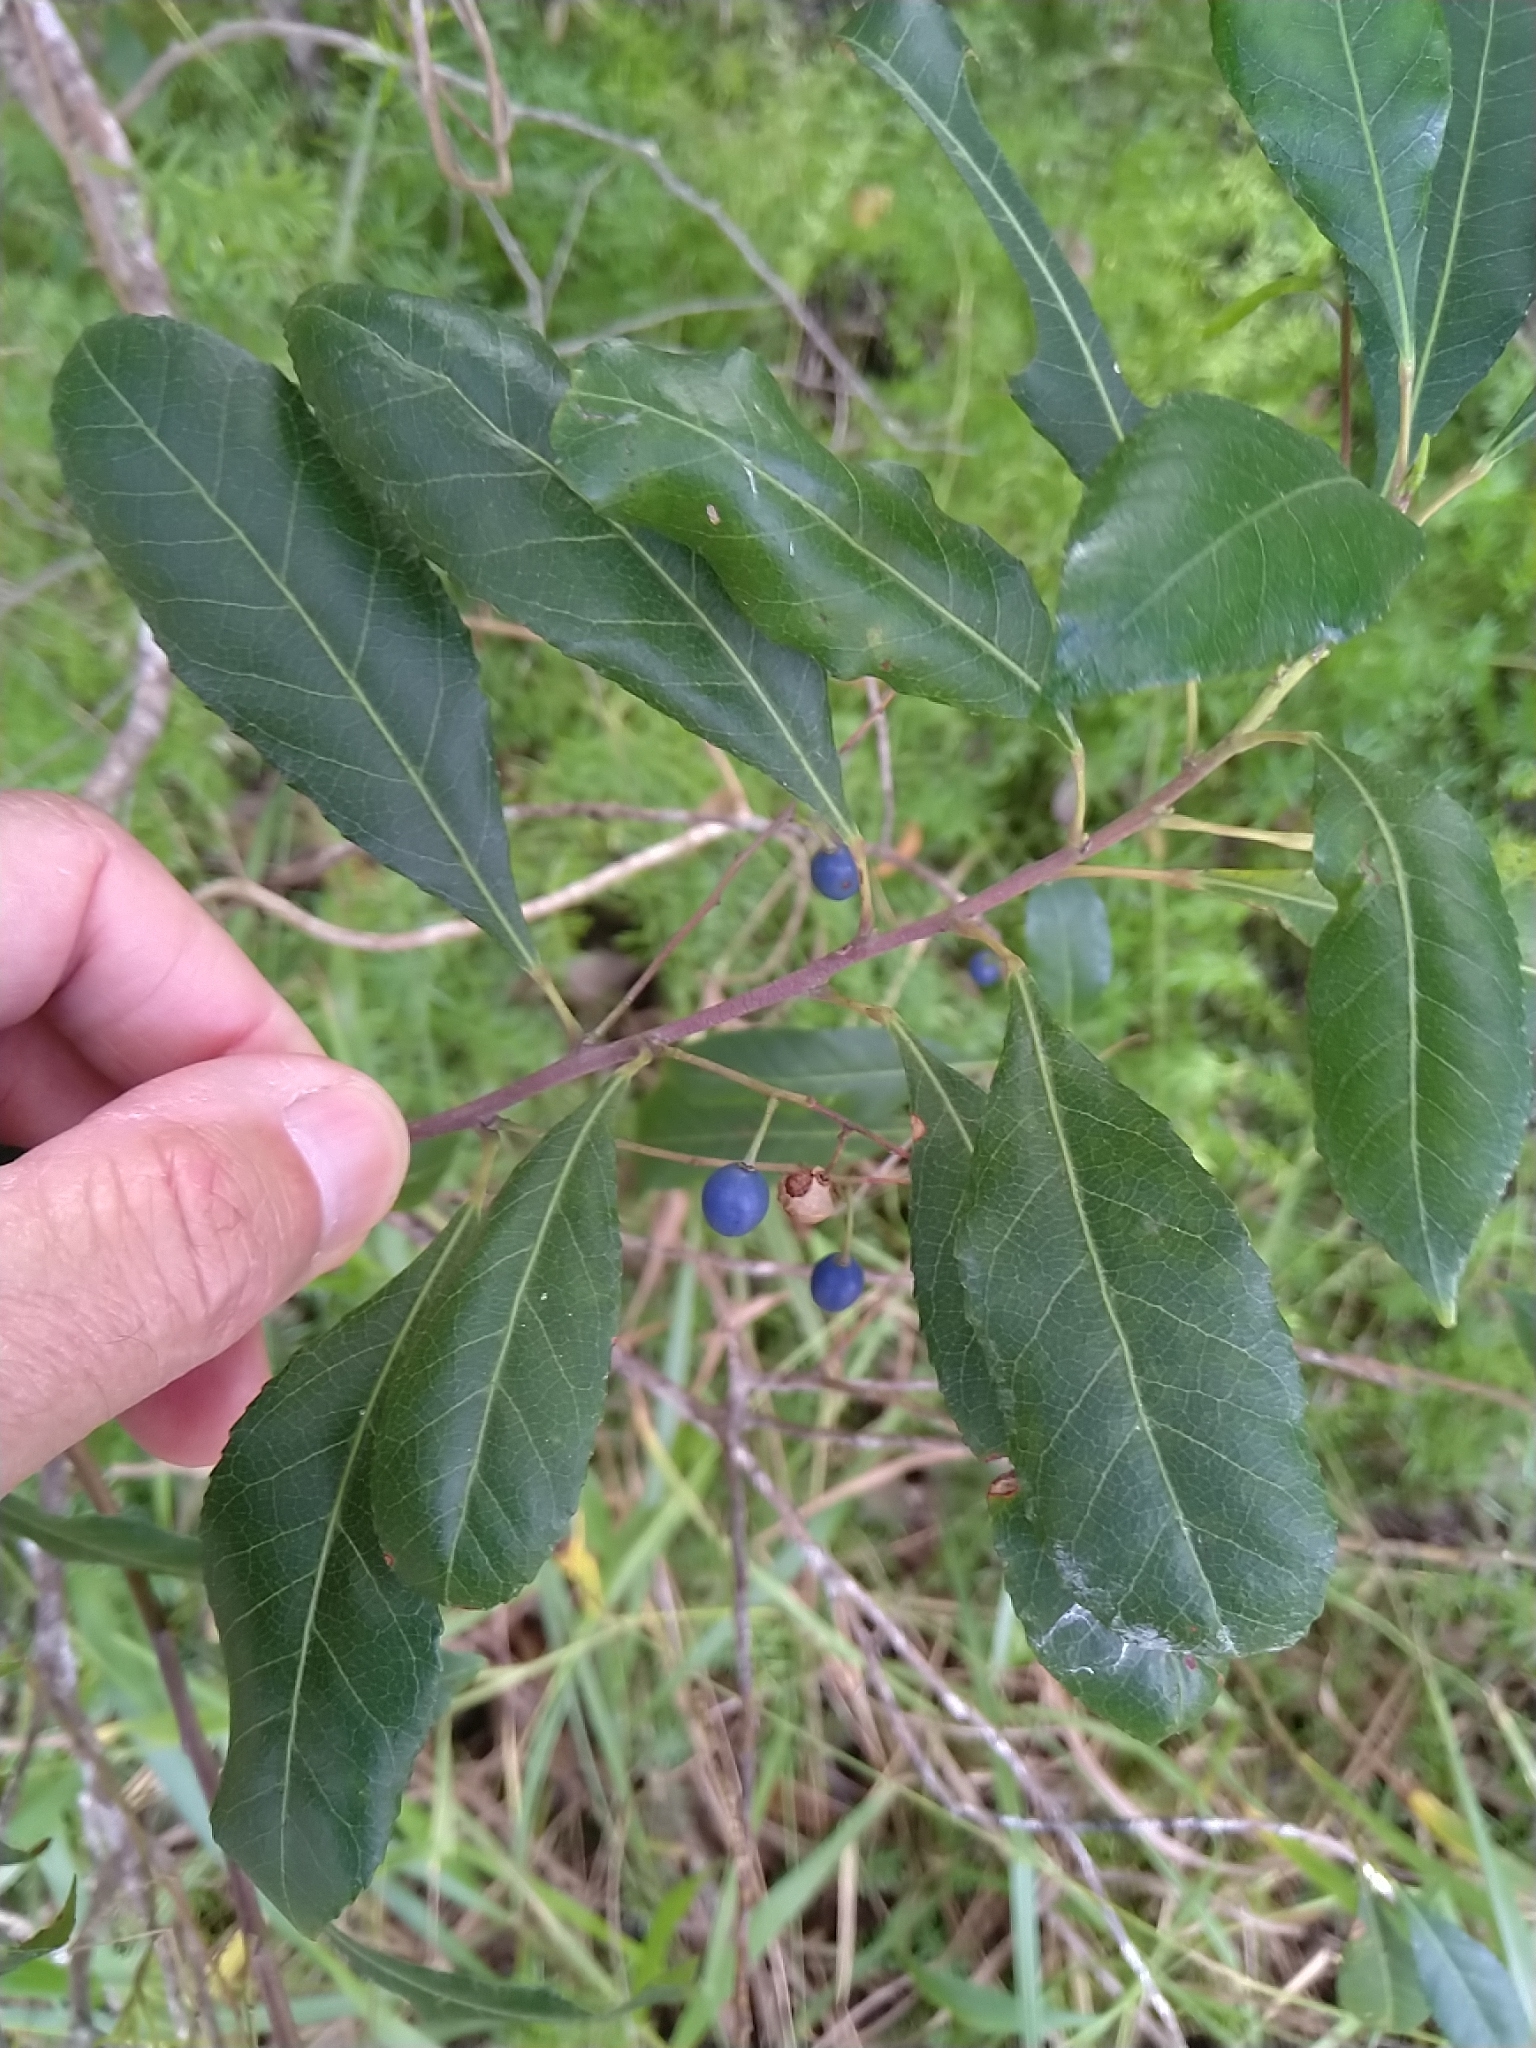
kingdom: Plantae
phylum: Tracheophyta
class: Magnoliopsida
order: Oxalidales
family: Elaeocarpaceae
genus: Elaeocarpus
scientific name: Elaeocarpus reticulatus
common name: Ash quandong
